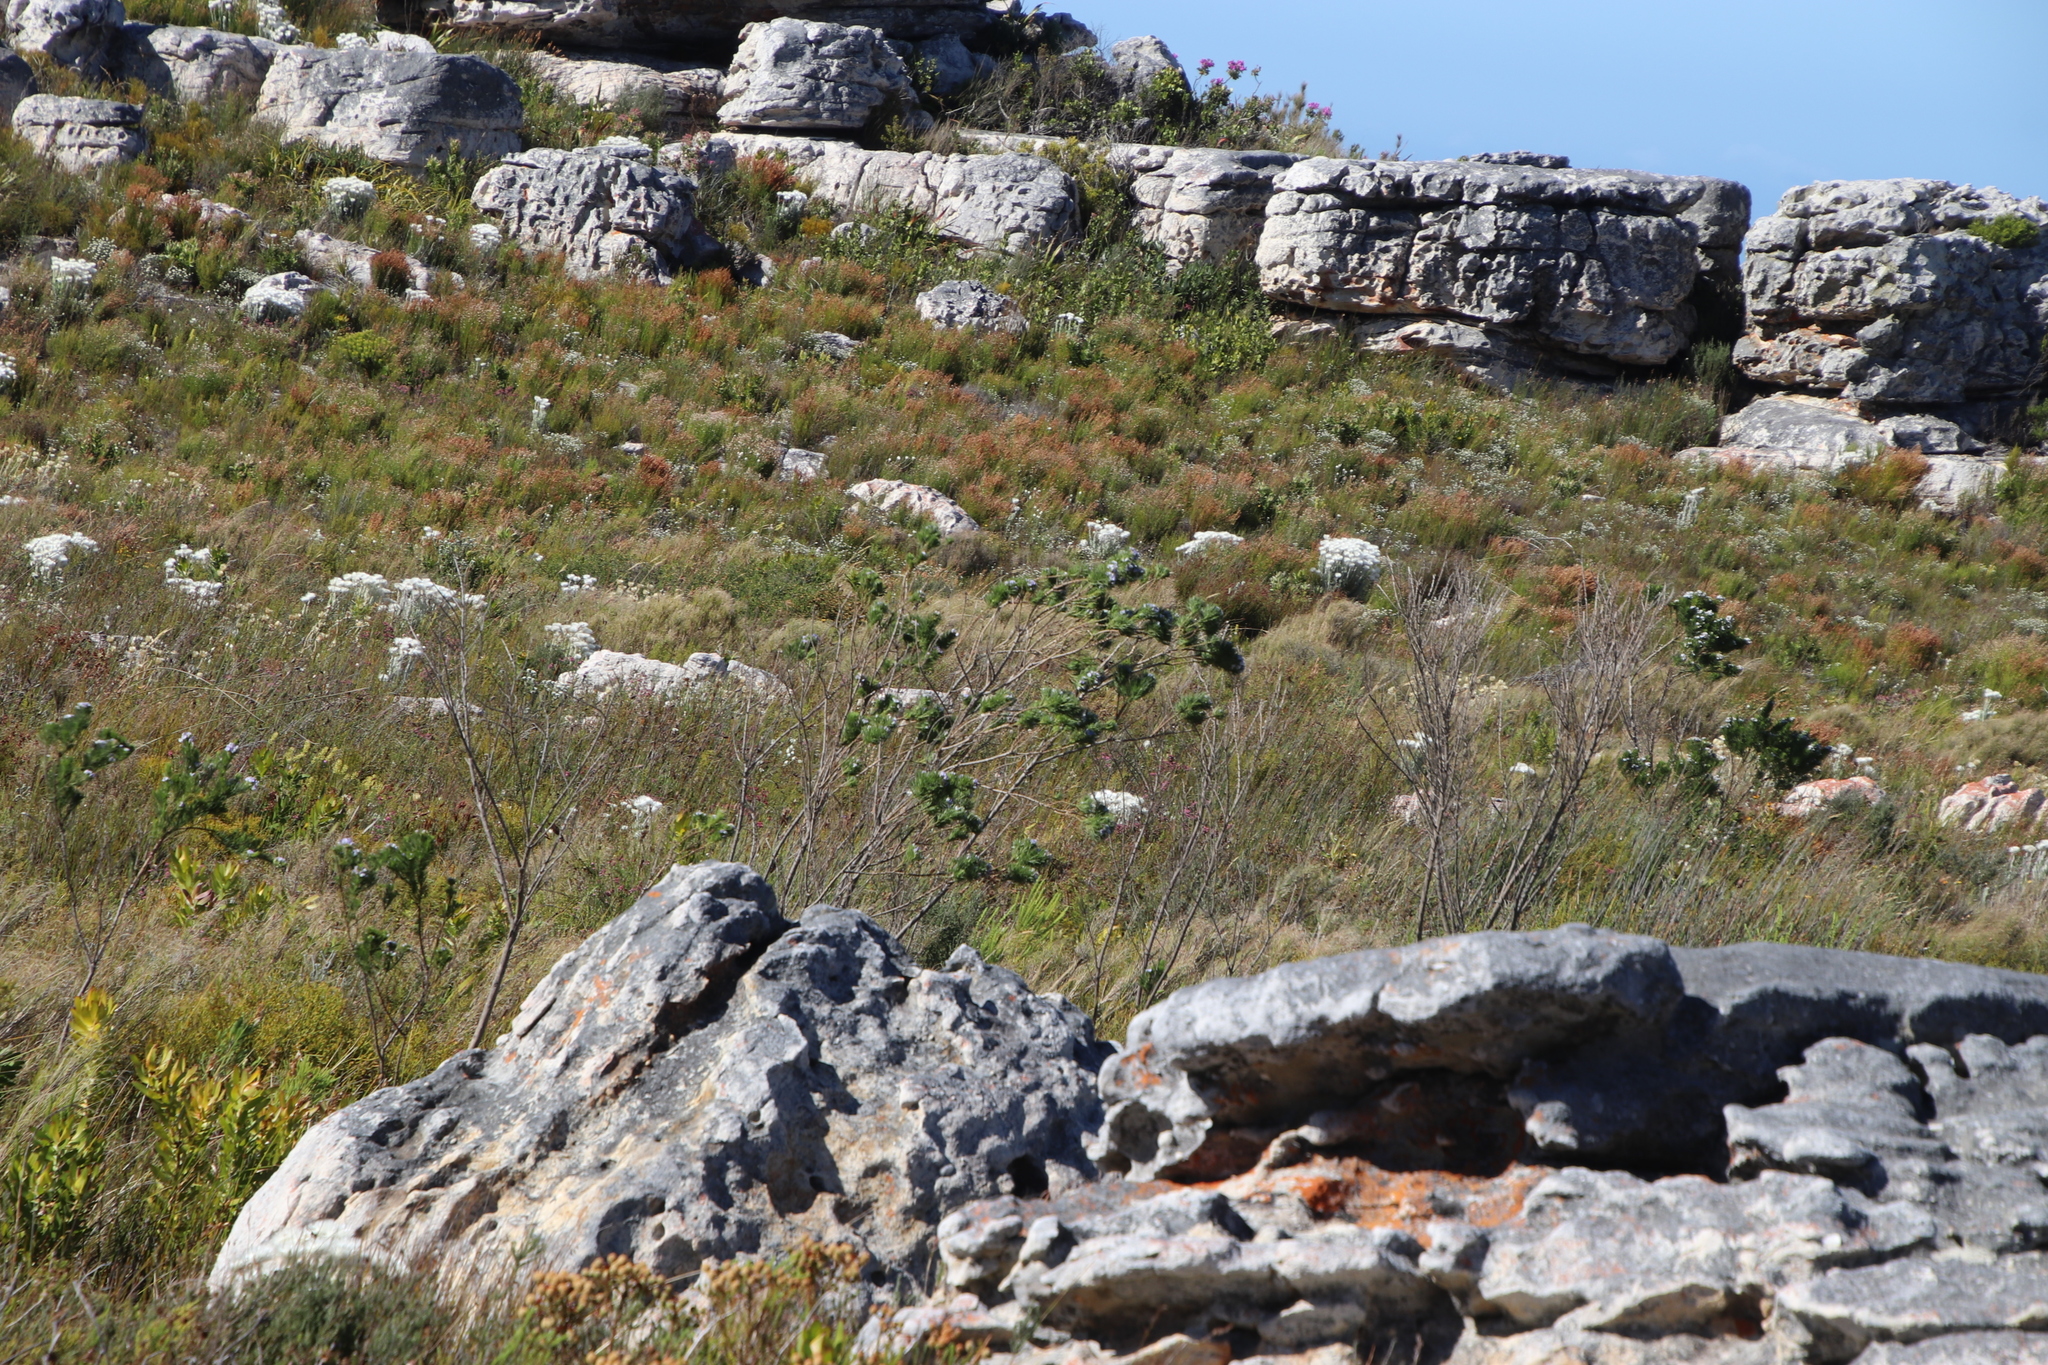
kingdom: Plantae
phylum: Tracheophyta
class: Magnoliopsida
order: Fabales
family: Fabaceae
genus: Psoralea
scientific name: Psoralea pinnata
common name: African scurfpea
